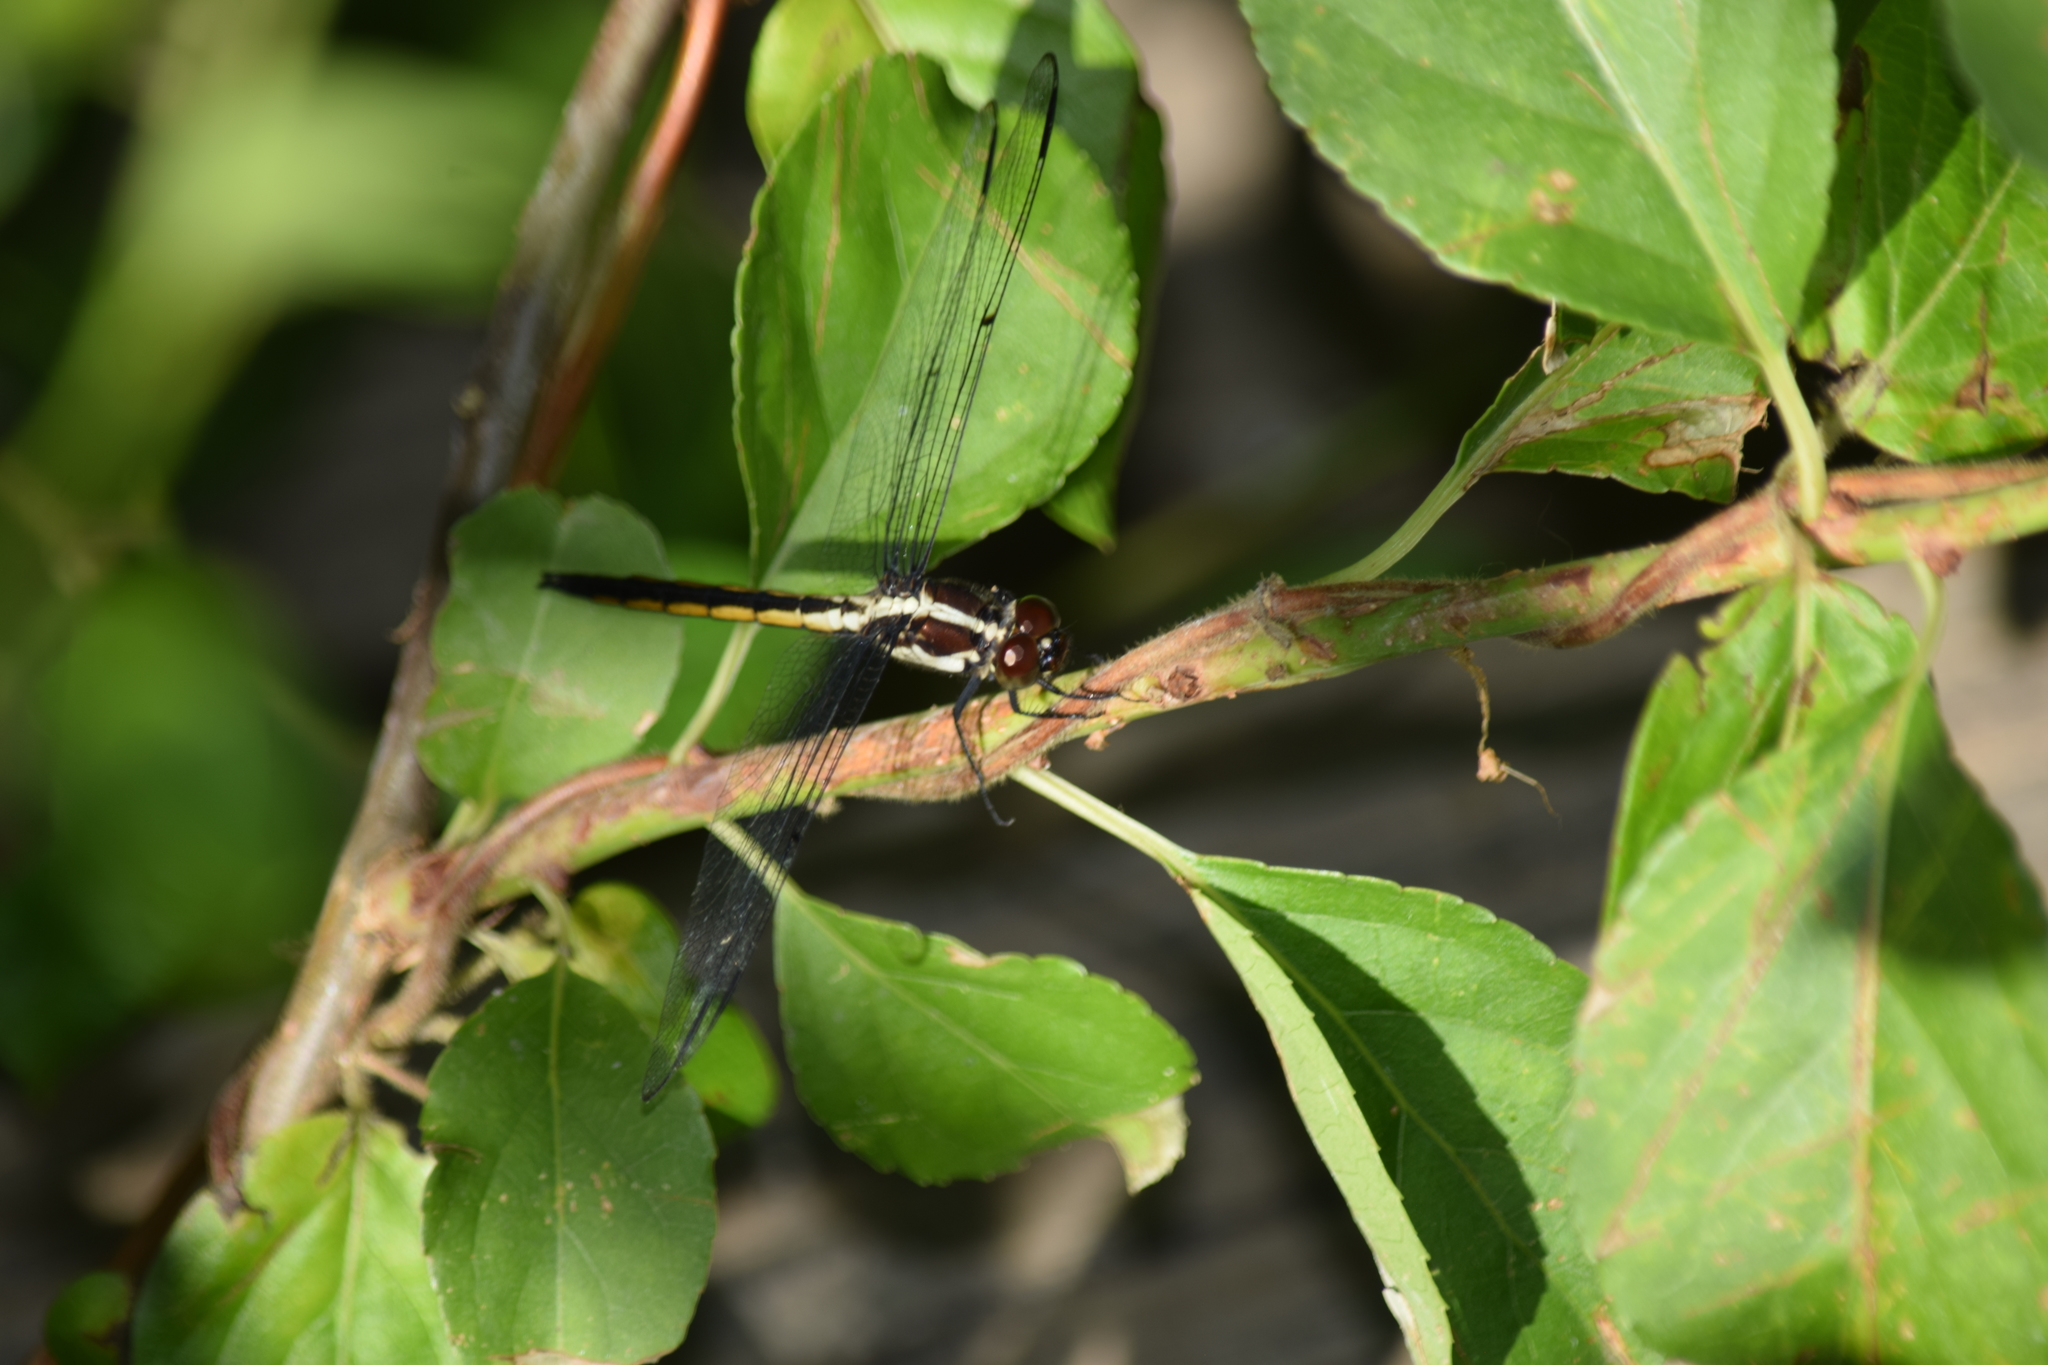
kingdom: Animalia
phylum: Arthropoda
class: Insecta
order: Odonata
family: Libellulidae
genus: Libellula
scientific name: Libellula incesta
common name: Slaty skimmer
